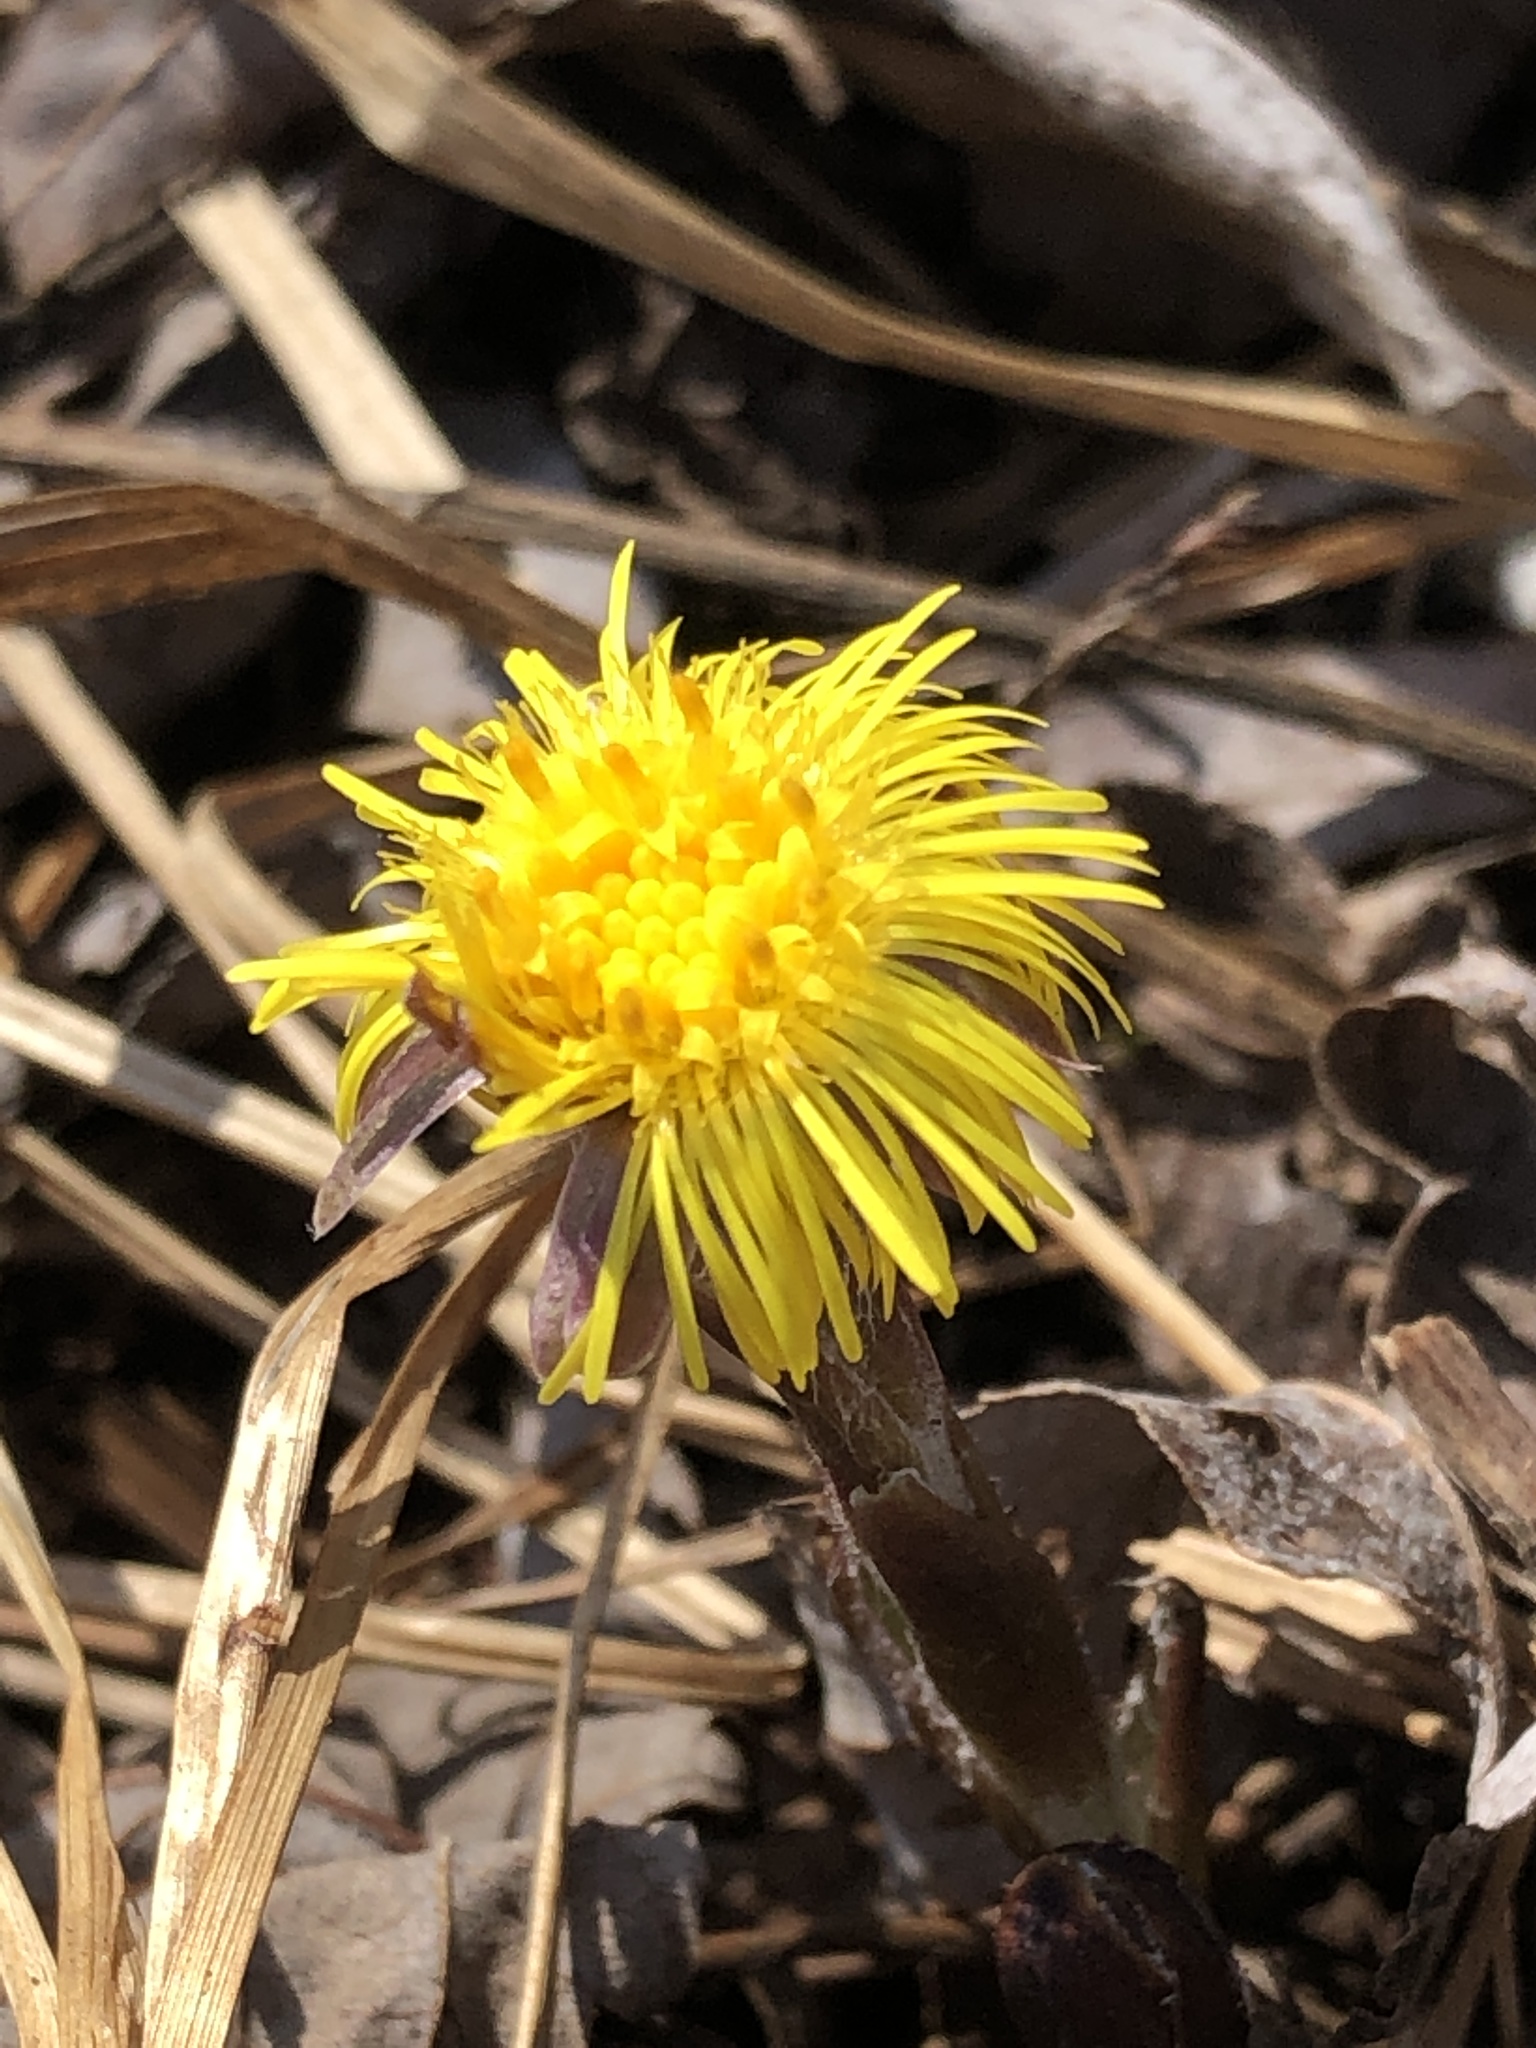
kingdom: Plantae
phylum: Tracheophyta
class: Magnoliopsida
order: Asterales
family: Asteraceae
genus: Tussilago
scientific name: Tussilago farfara
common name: Coltsfoot
